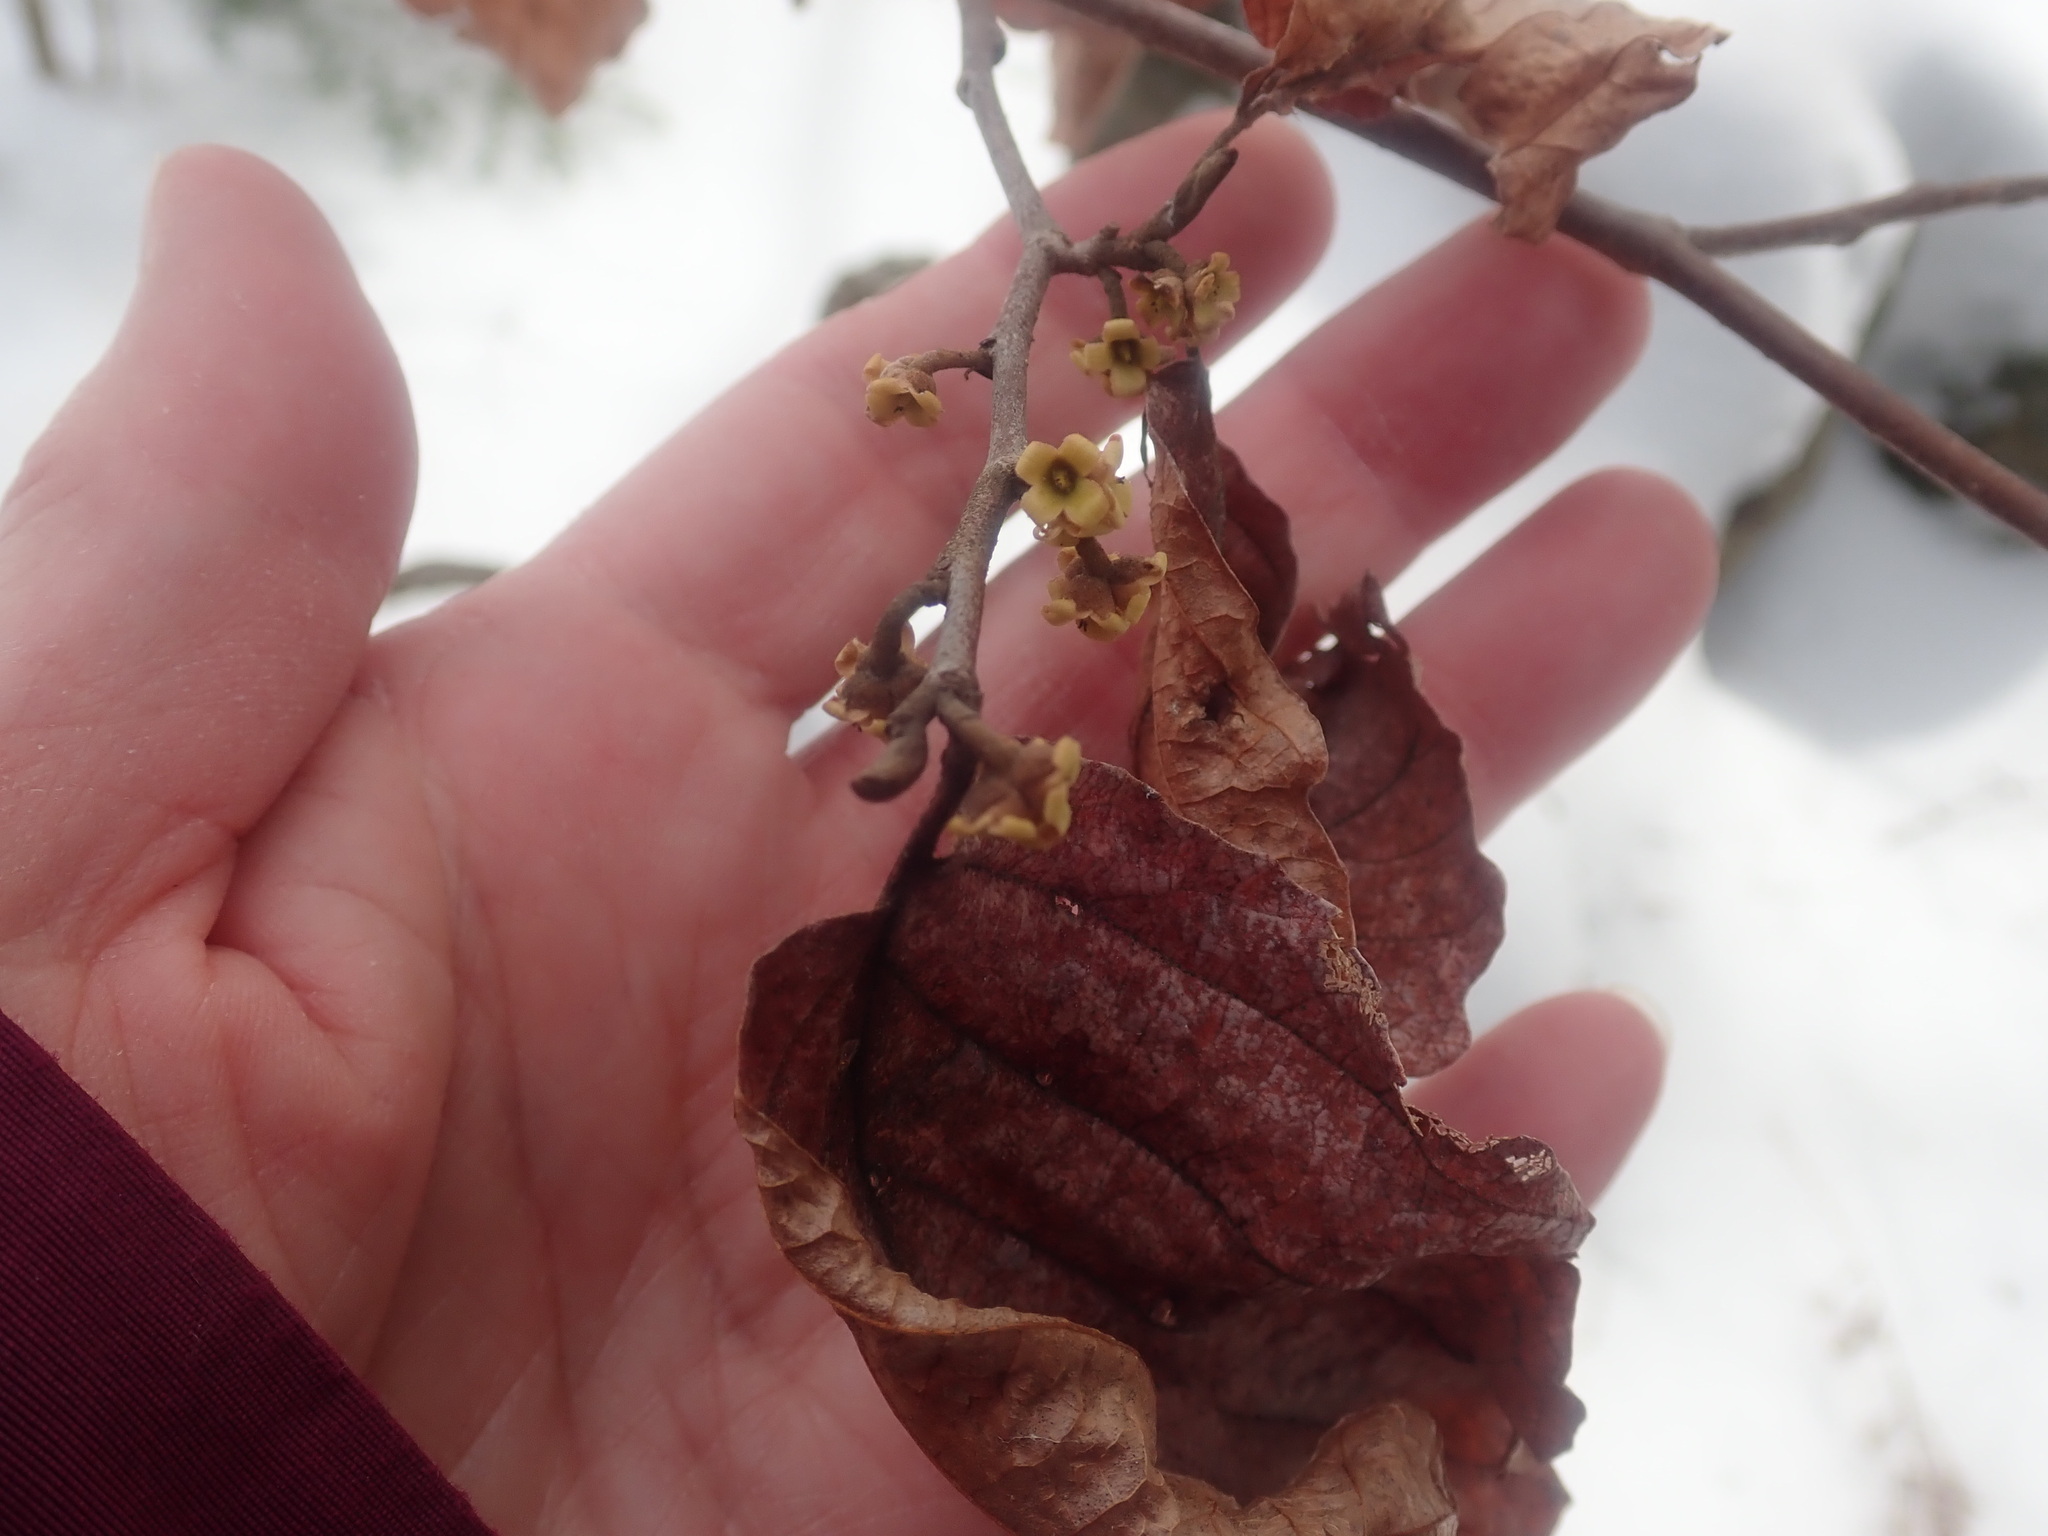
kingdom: Plantae
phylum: Tracheophyta
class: Magnoliopsida
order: Saxifragales
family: Hamamelidaceae
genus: Hamamelis
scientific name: Hamamelis virginiana
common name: Witch-hazel
